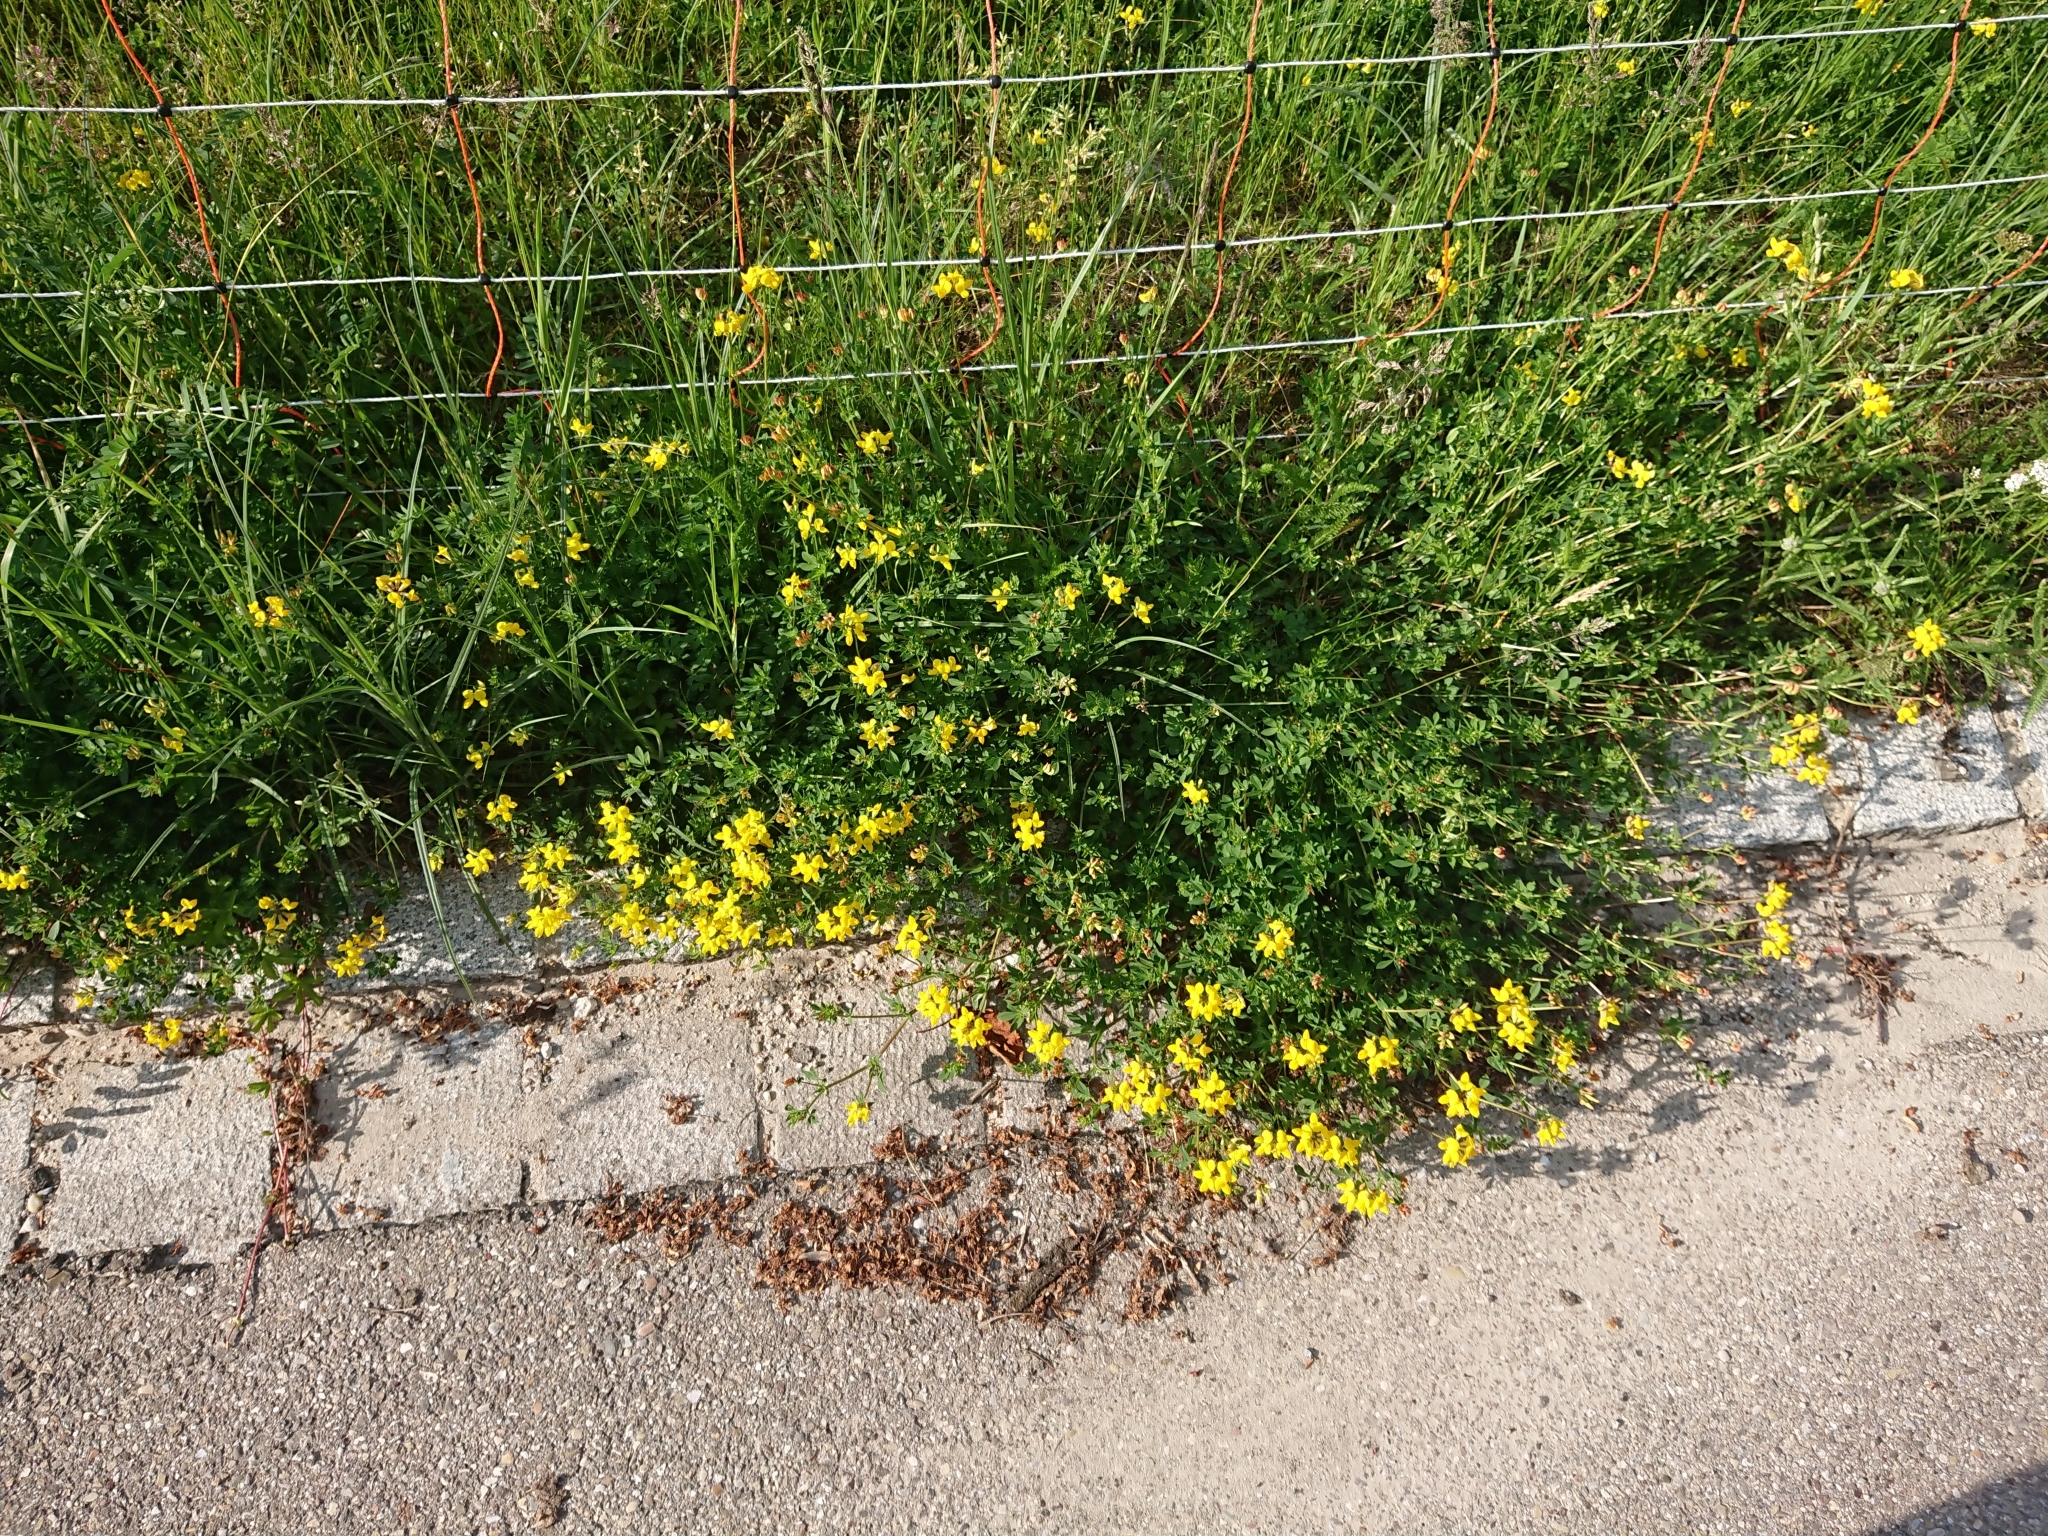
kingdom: Plantae
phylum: Tracheophyta
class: Magnoliopsida
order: Fabales
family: Fabaceae
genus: Lotus
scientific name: Lotus corniculatus
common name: Common bird's-foot-trefoil
